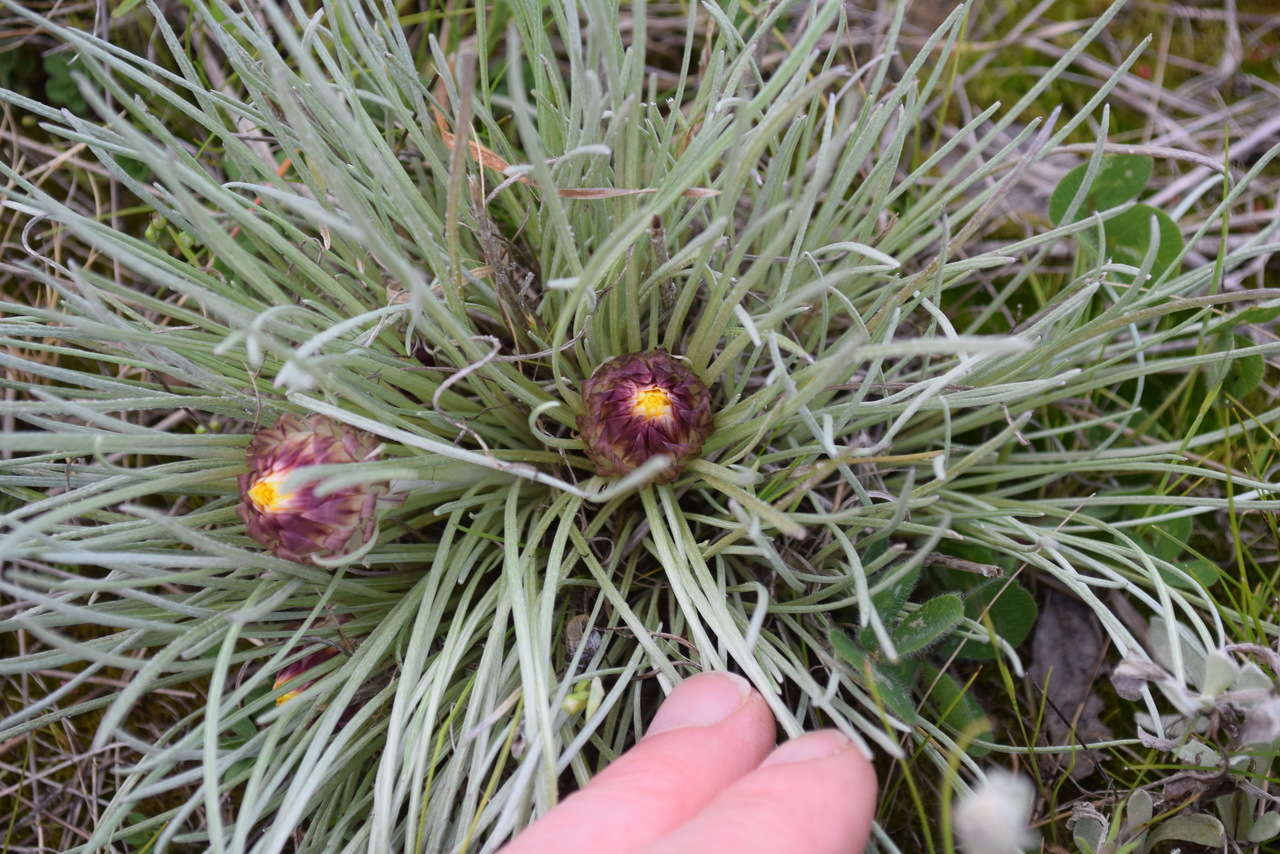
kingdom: Plantae
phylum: Tracheophyta
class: Magnoliopsida
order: Asterales
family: Asteraceae
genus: Leucochrysum
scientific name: Leucochrysum albicans
